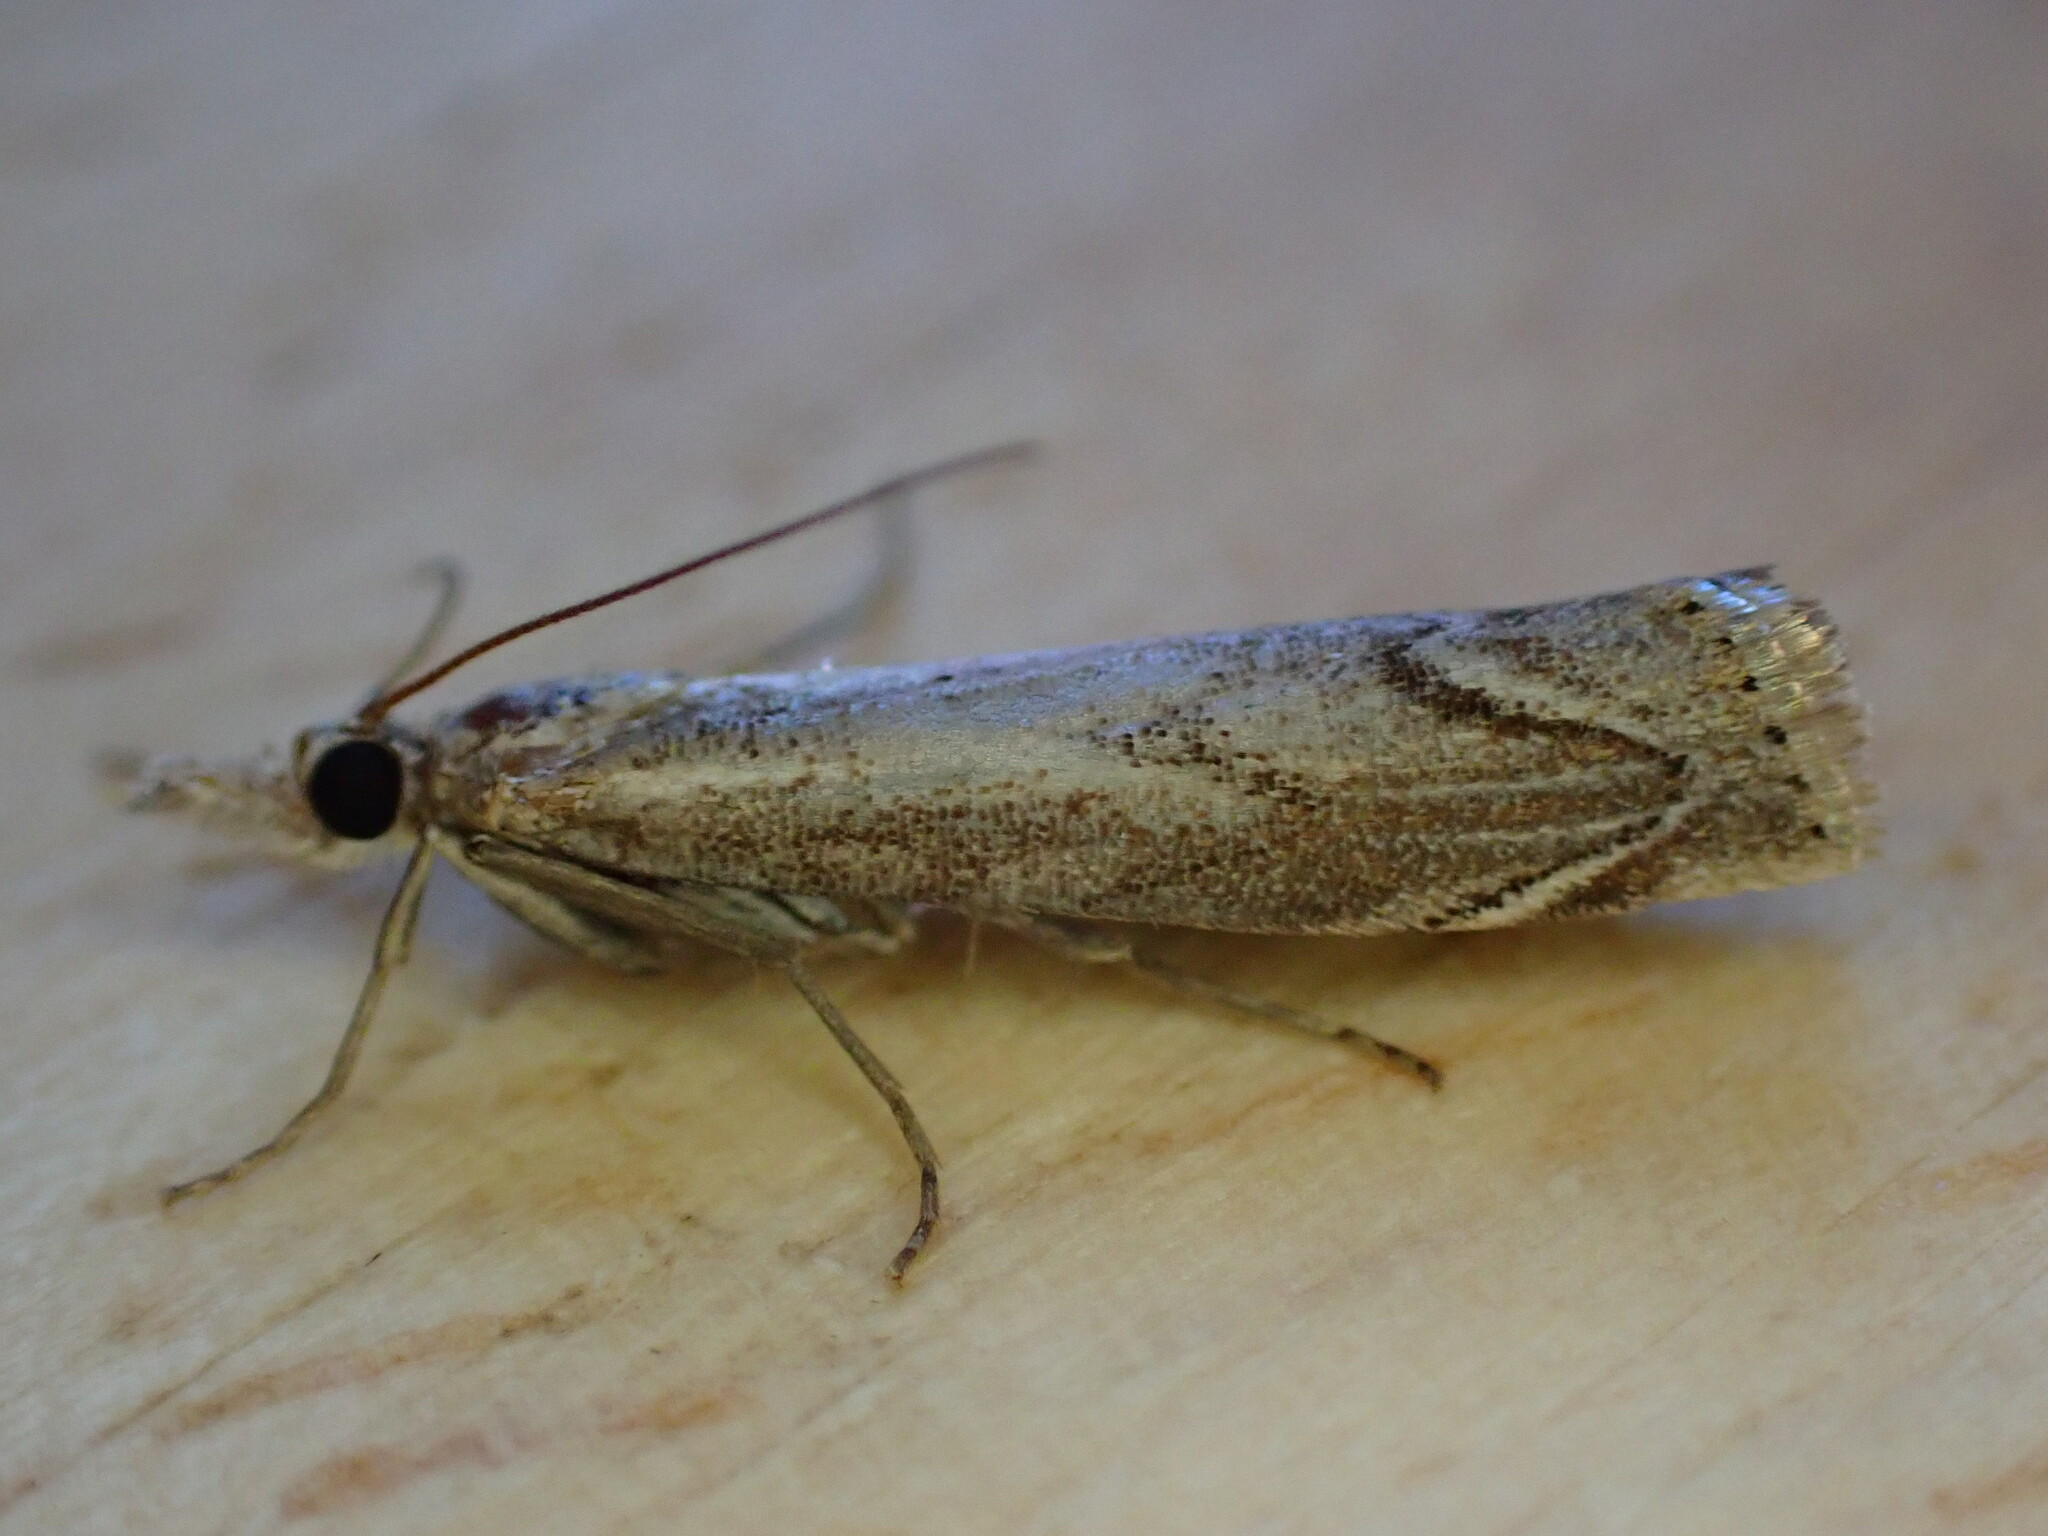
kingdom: Animalia
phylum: Arthropoda
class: Insecta
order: Lepidoptera
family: Crambidae
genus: Agriphila
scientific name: Agriphila geniculea
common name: Elbow-stripe grass-veneer
